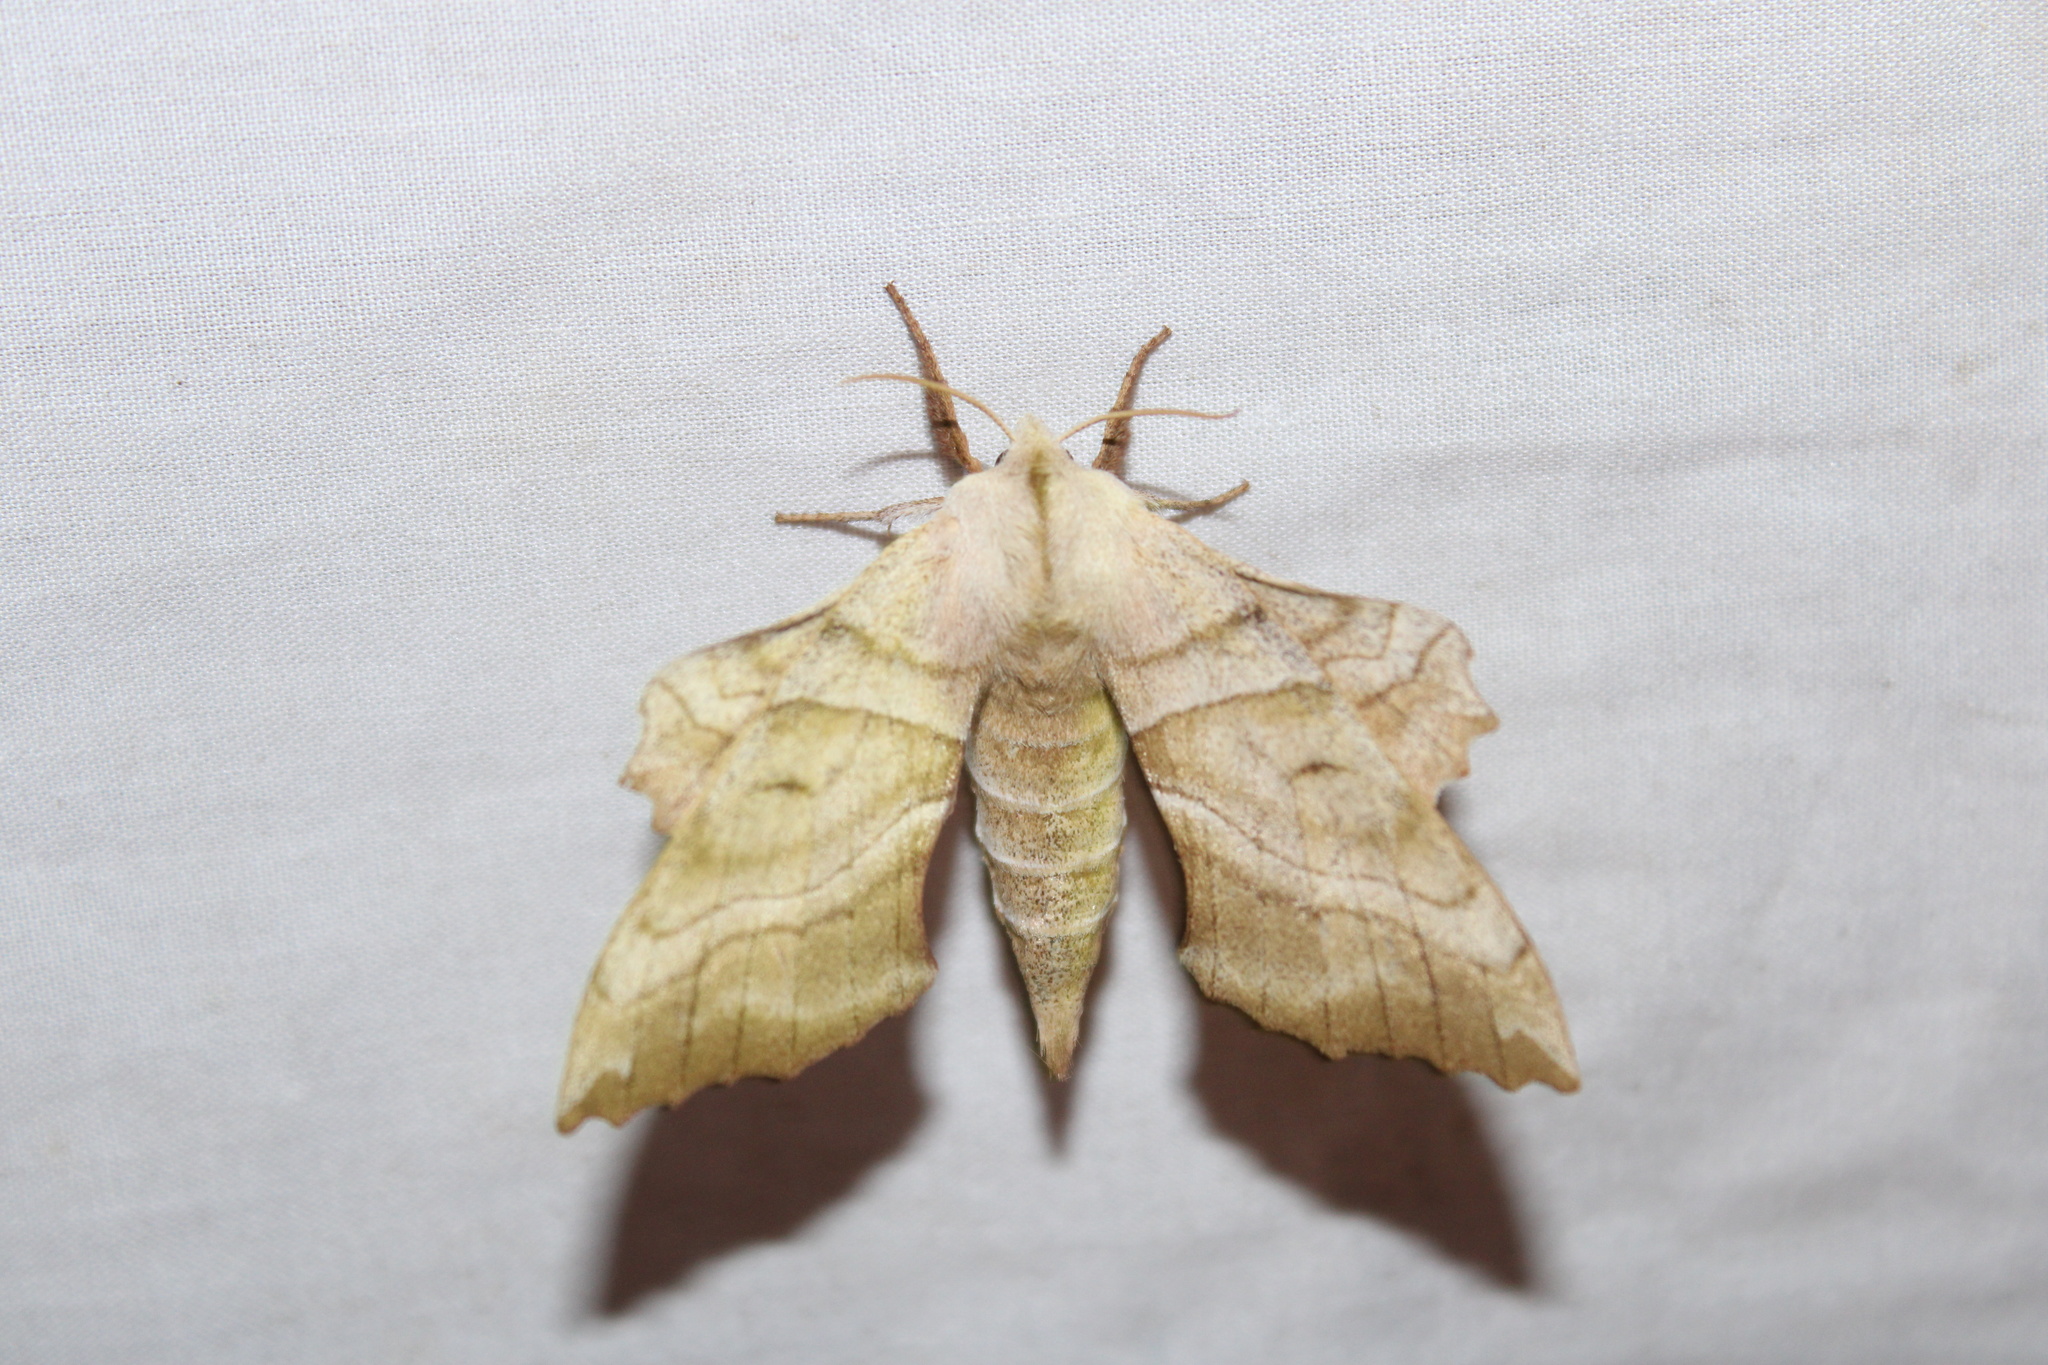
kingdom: Animalia
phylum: Arthropoda
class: Insecta
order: Lepidoptera
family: Sphingidae
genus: Amorpha
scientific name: Amorpha juglandis
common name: Walnut sphinx
